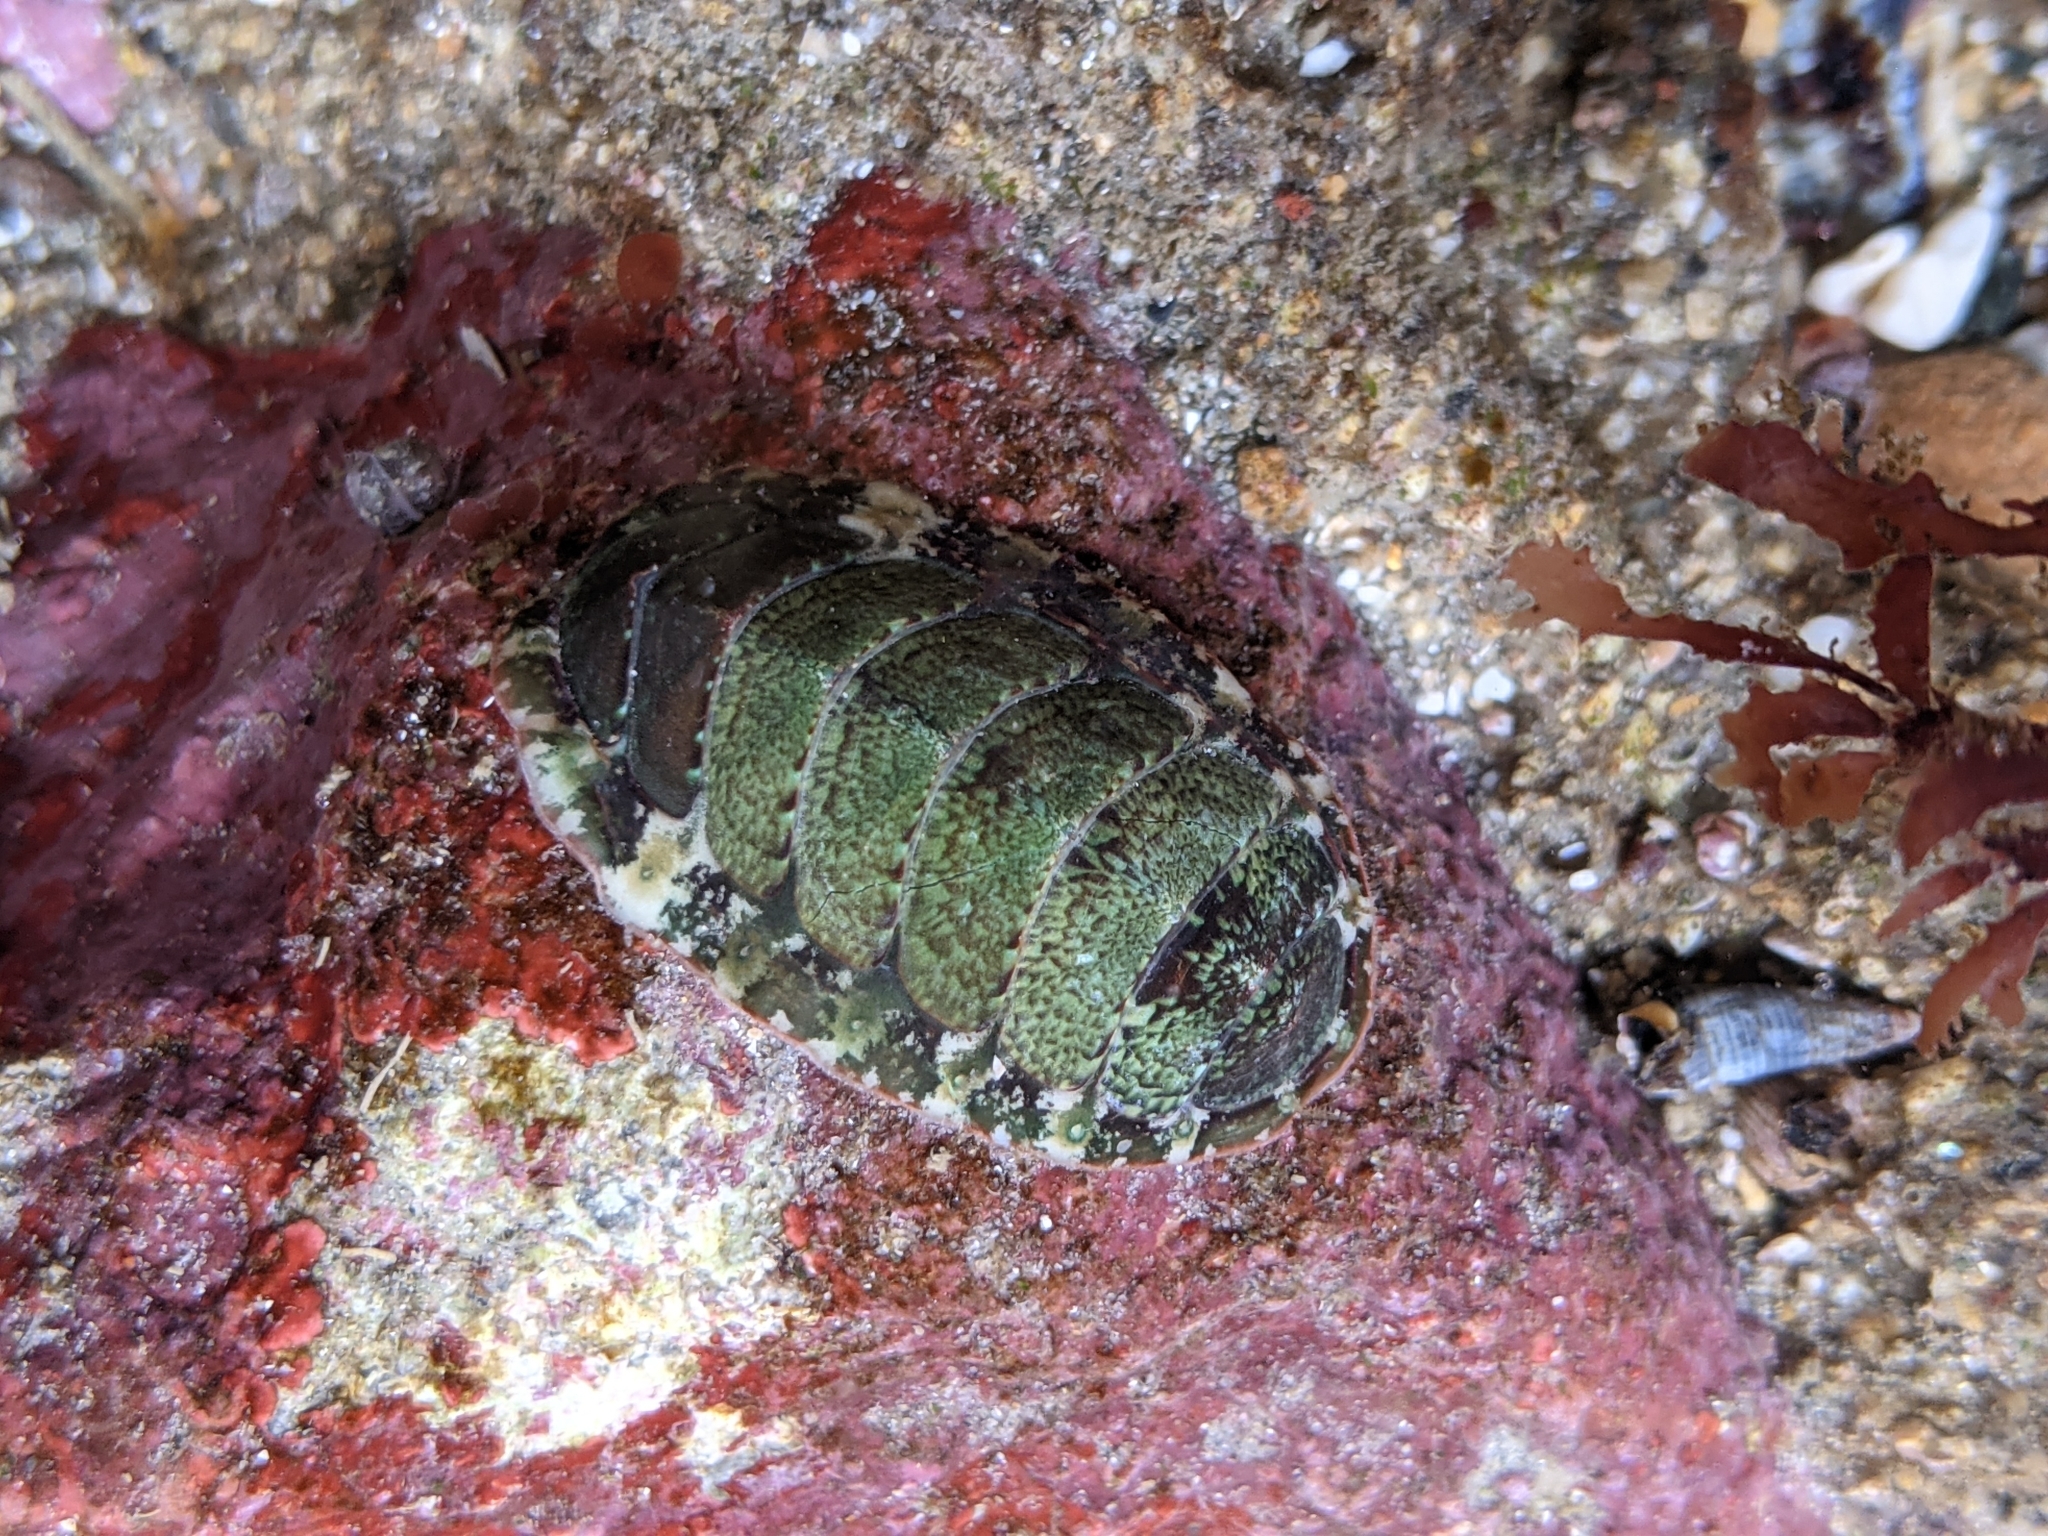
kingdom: Animalia
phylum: Mollusca
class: Polyplacophora
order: Chitonida
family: Mopaliidae
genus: Dendrochiton
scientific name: Dendrochiton flectens
